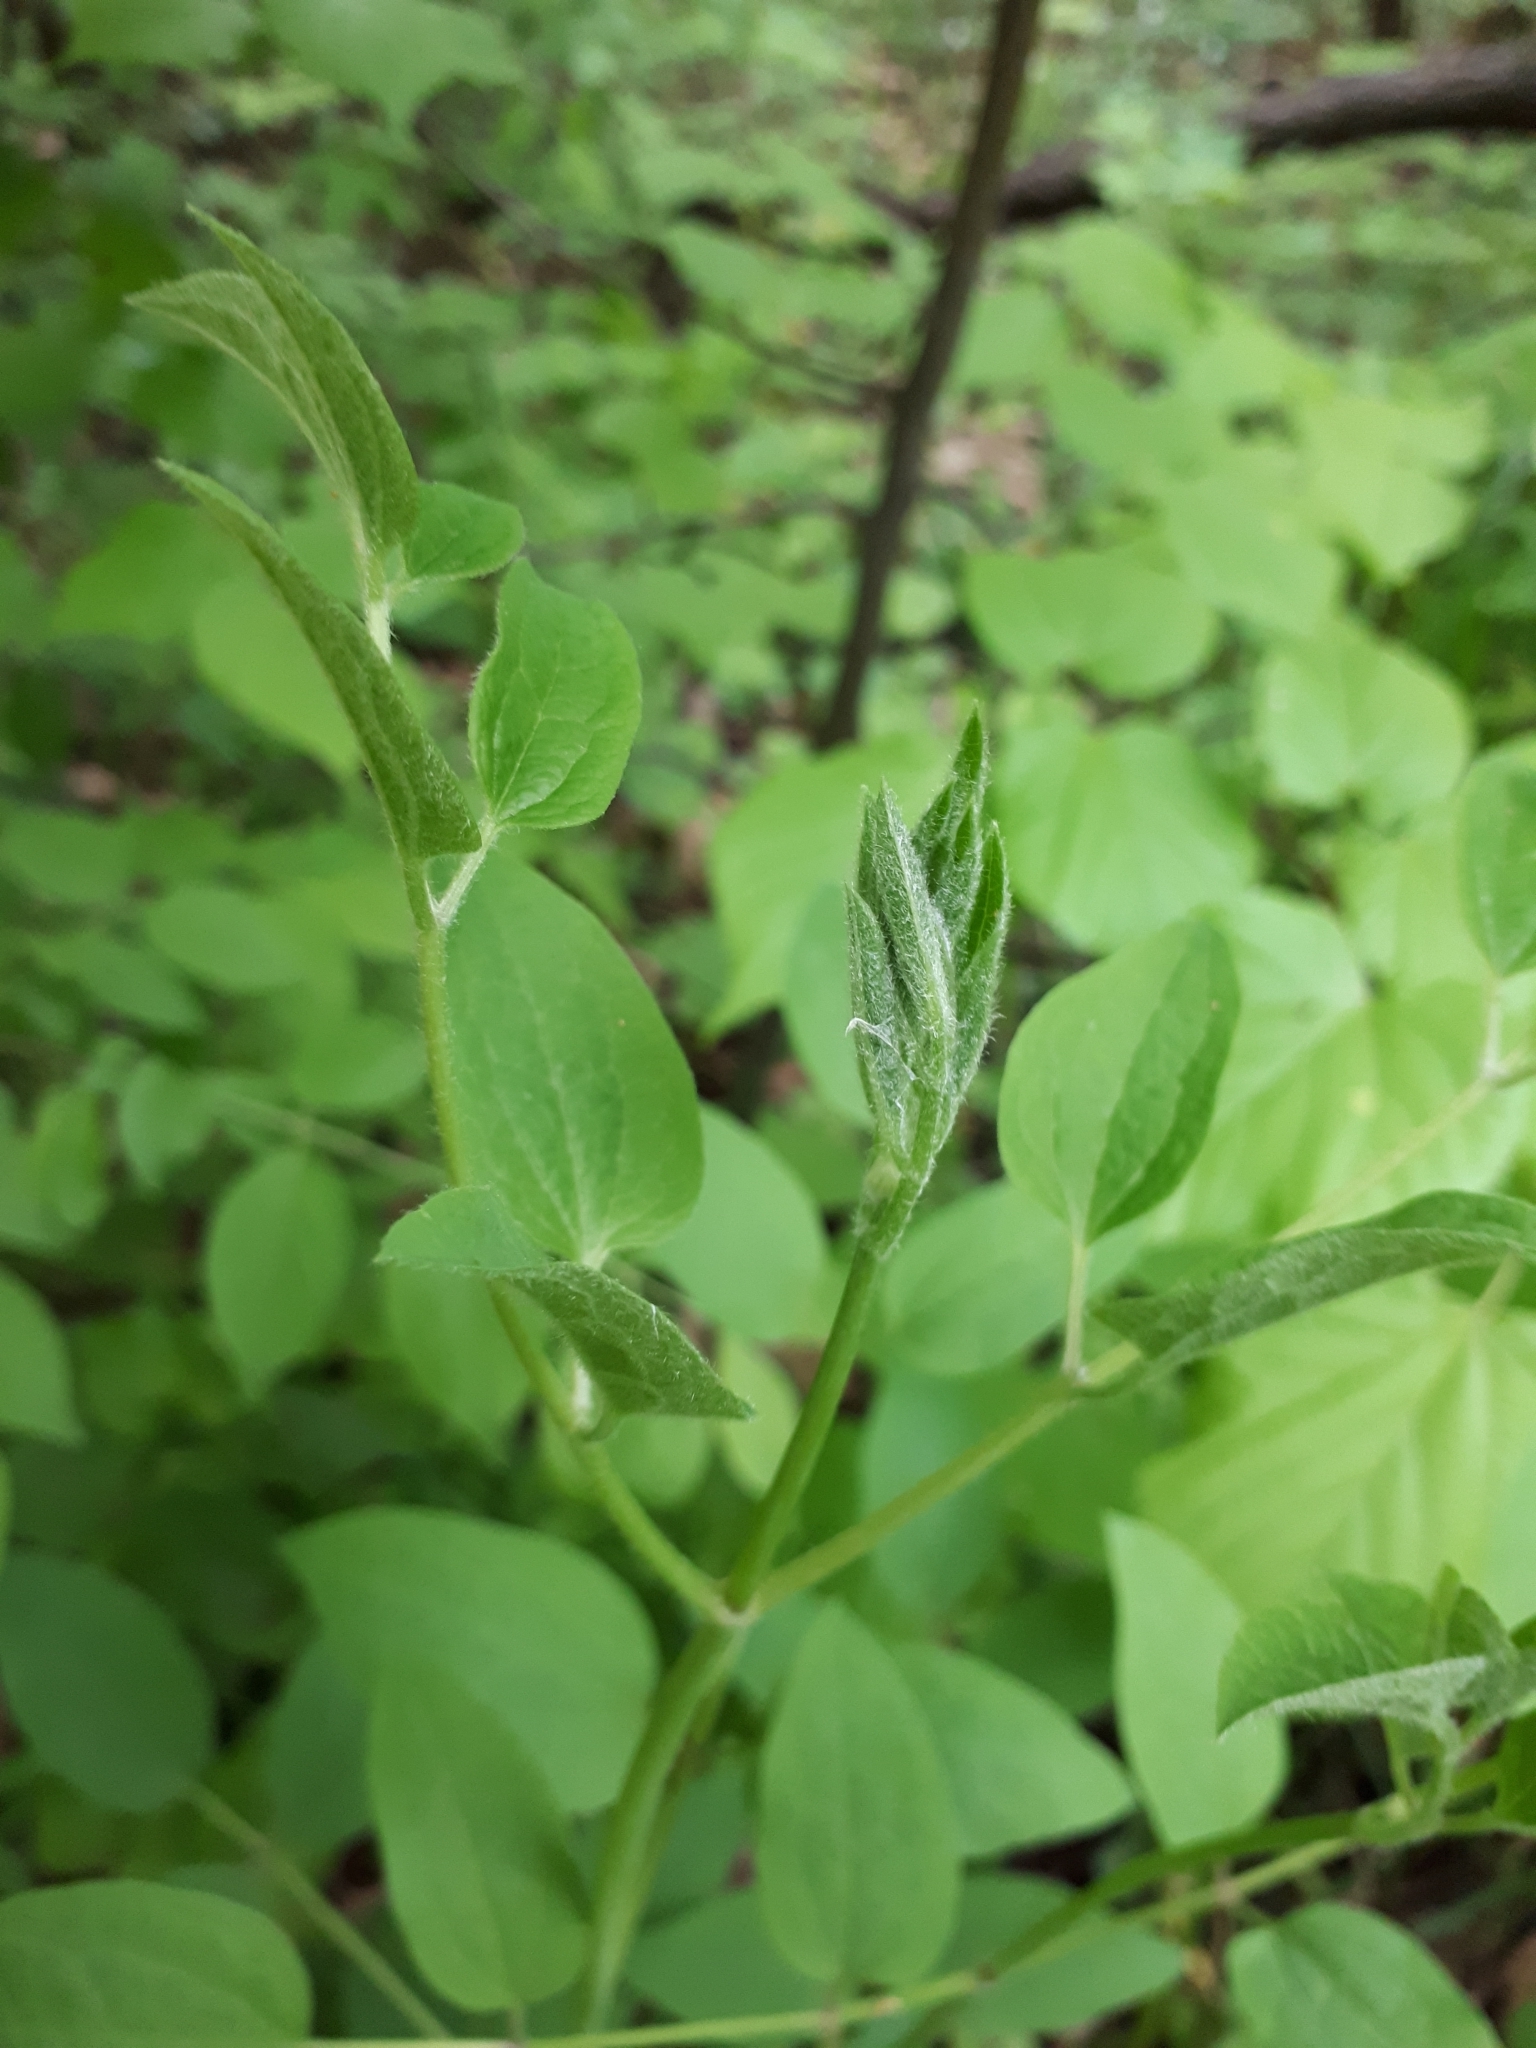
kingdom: Plantae
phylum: Tracheophyta
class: Magnoliopsida
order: Ranunculales
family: Ranunculaceae
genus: Clematis
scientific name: Clematis recta
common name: Ground clematis
